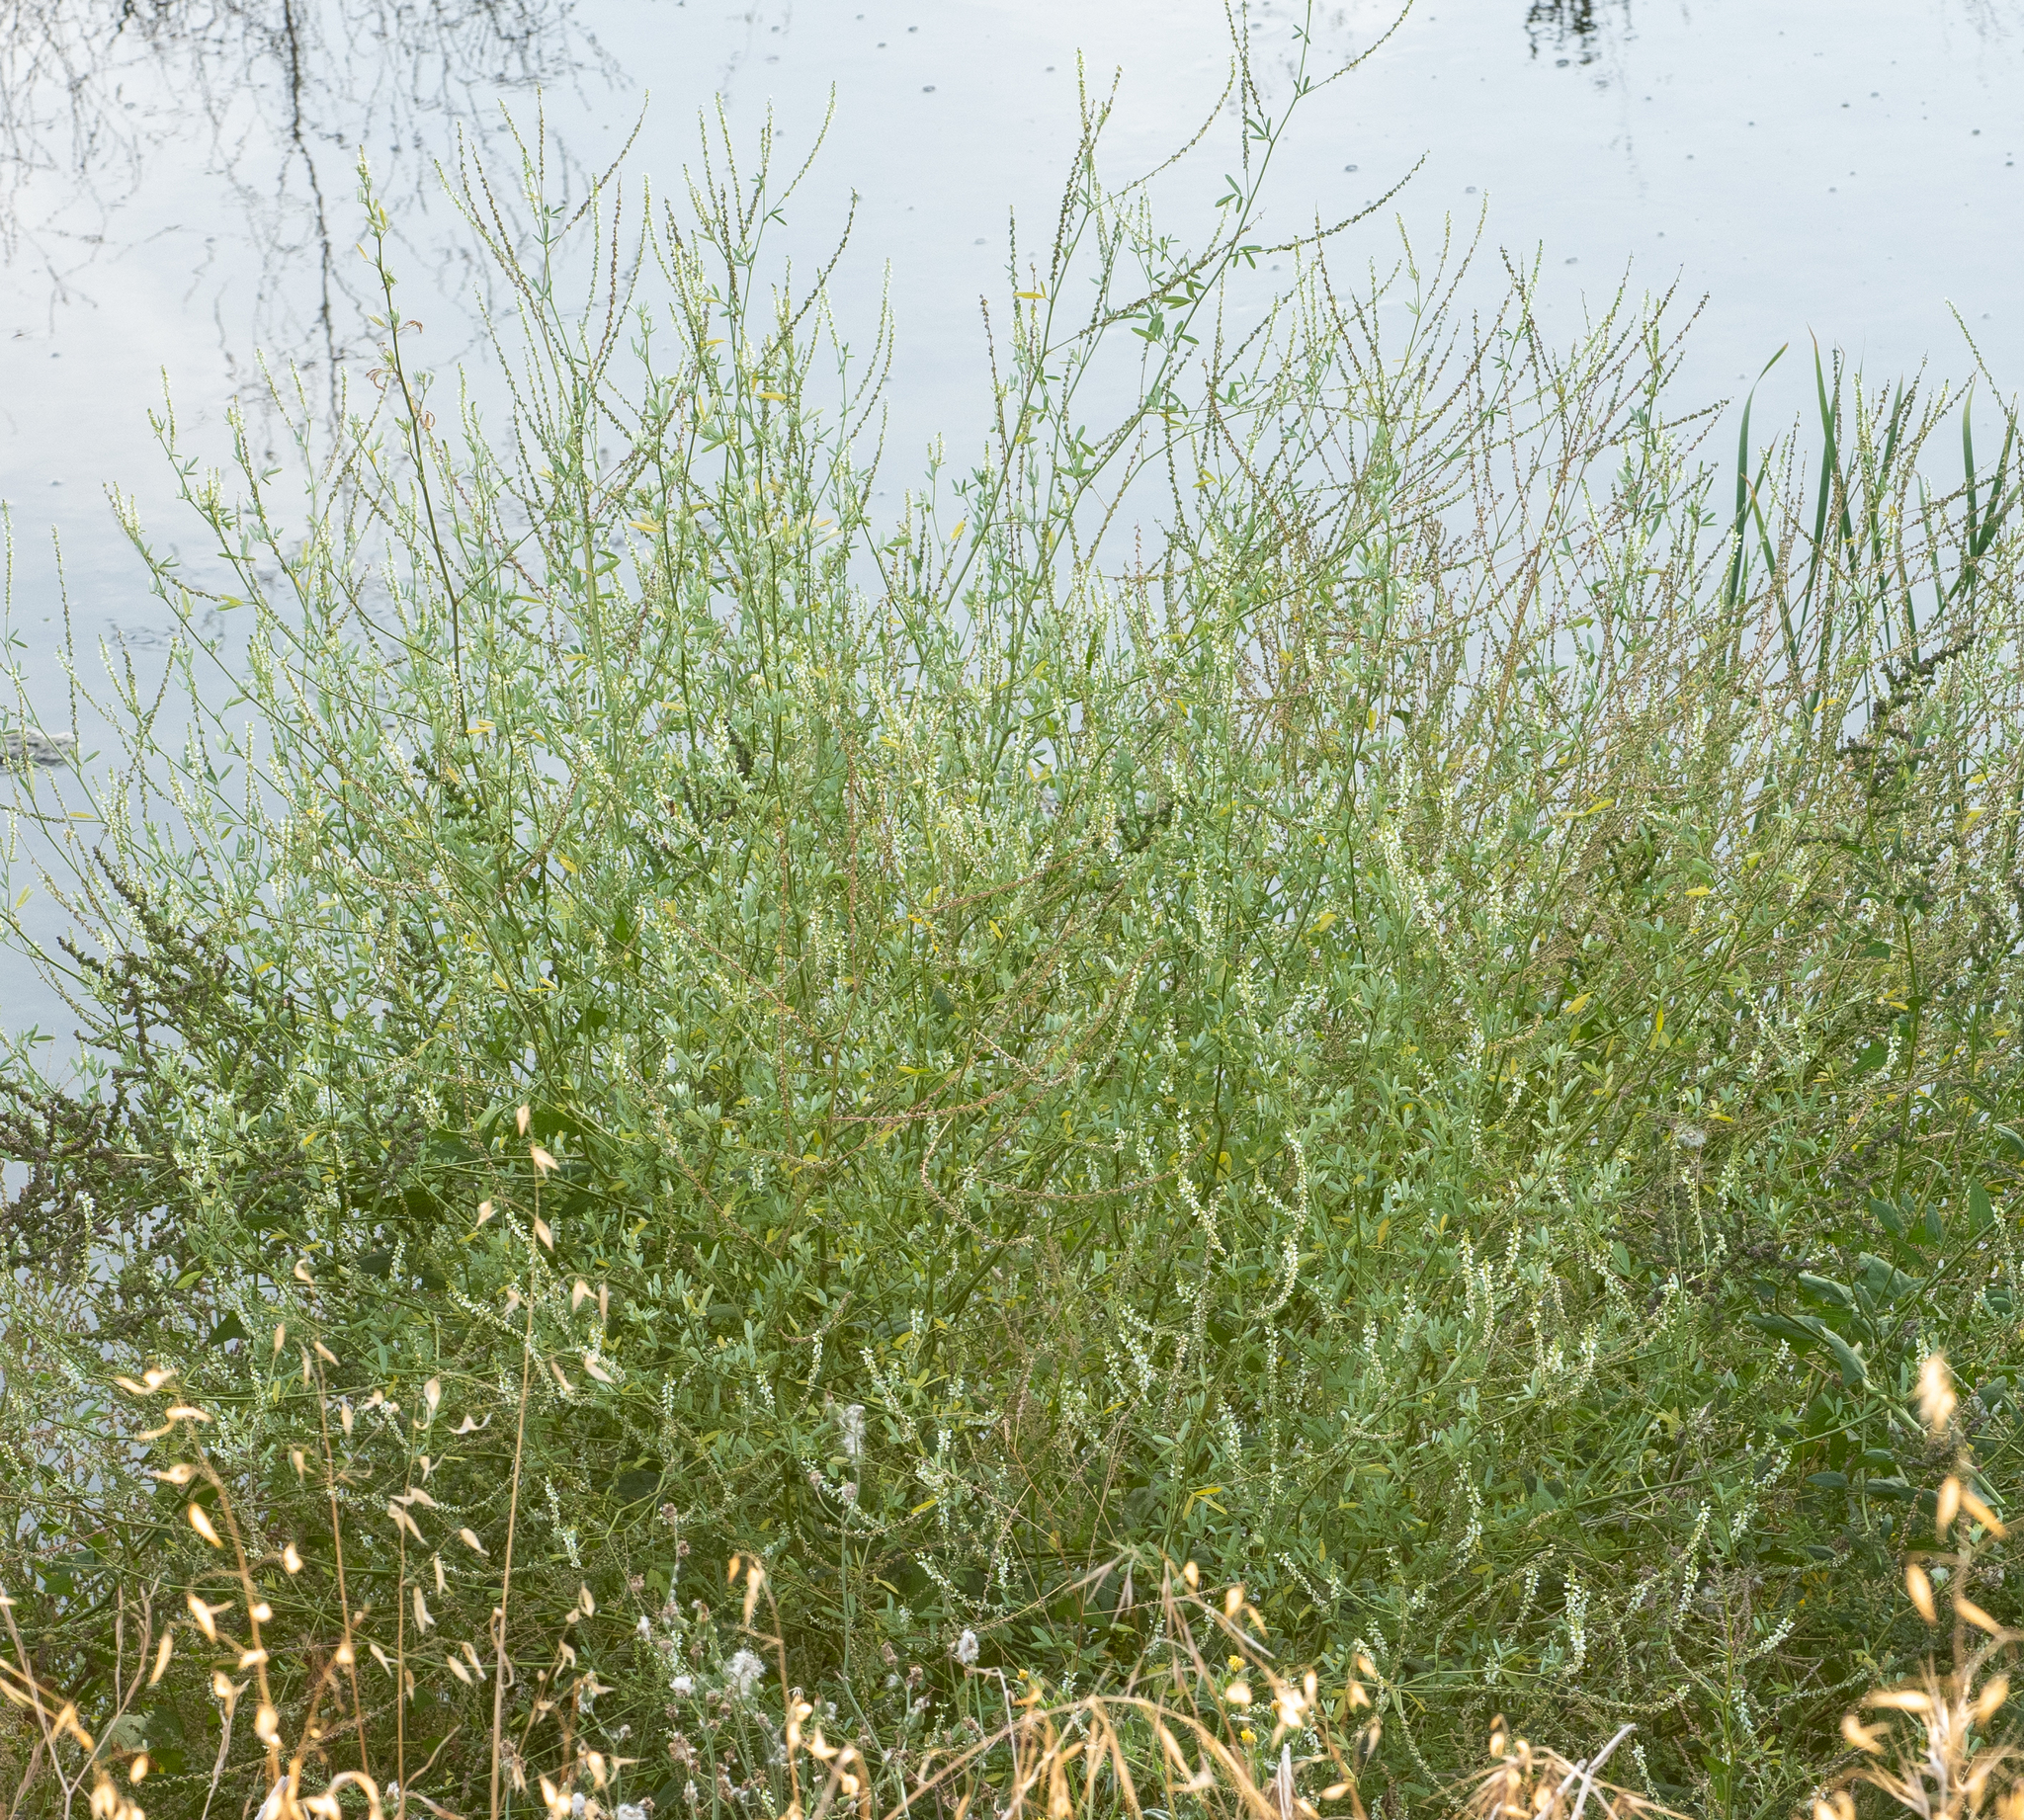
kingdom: Plantae
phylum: Tracheophyta
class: Magnoliopsida
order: Fabales
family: Fabaceae
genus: Melilotus
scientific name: Melilotus albus
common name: White melilot
